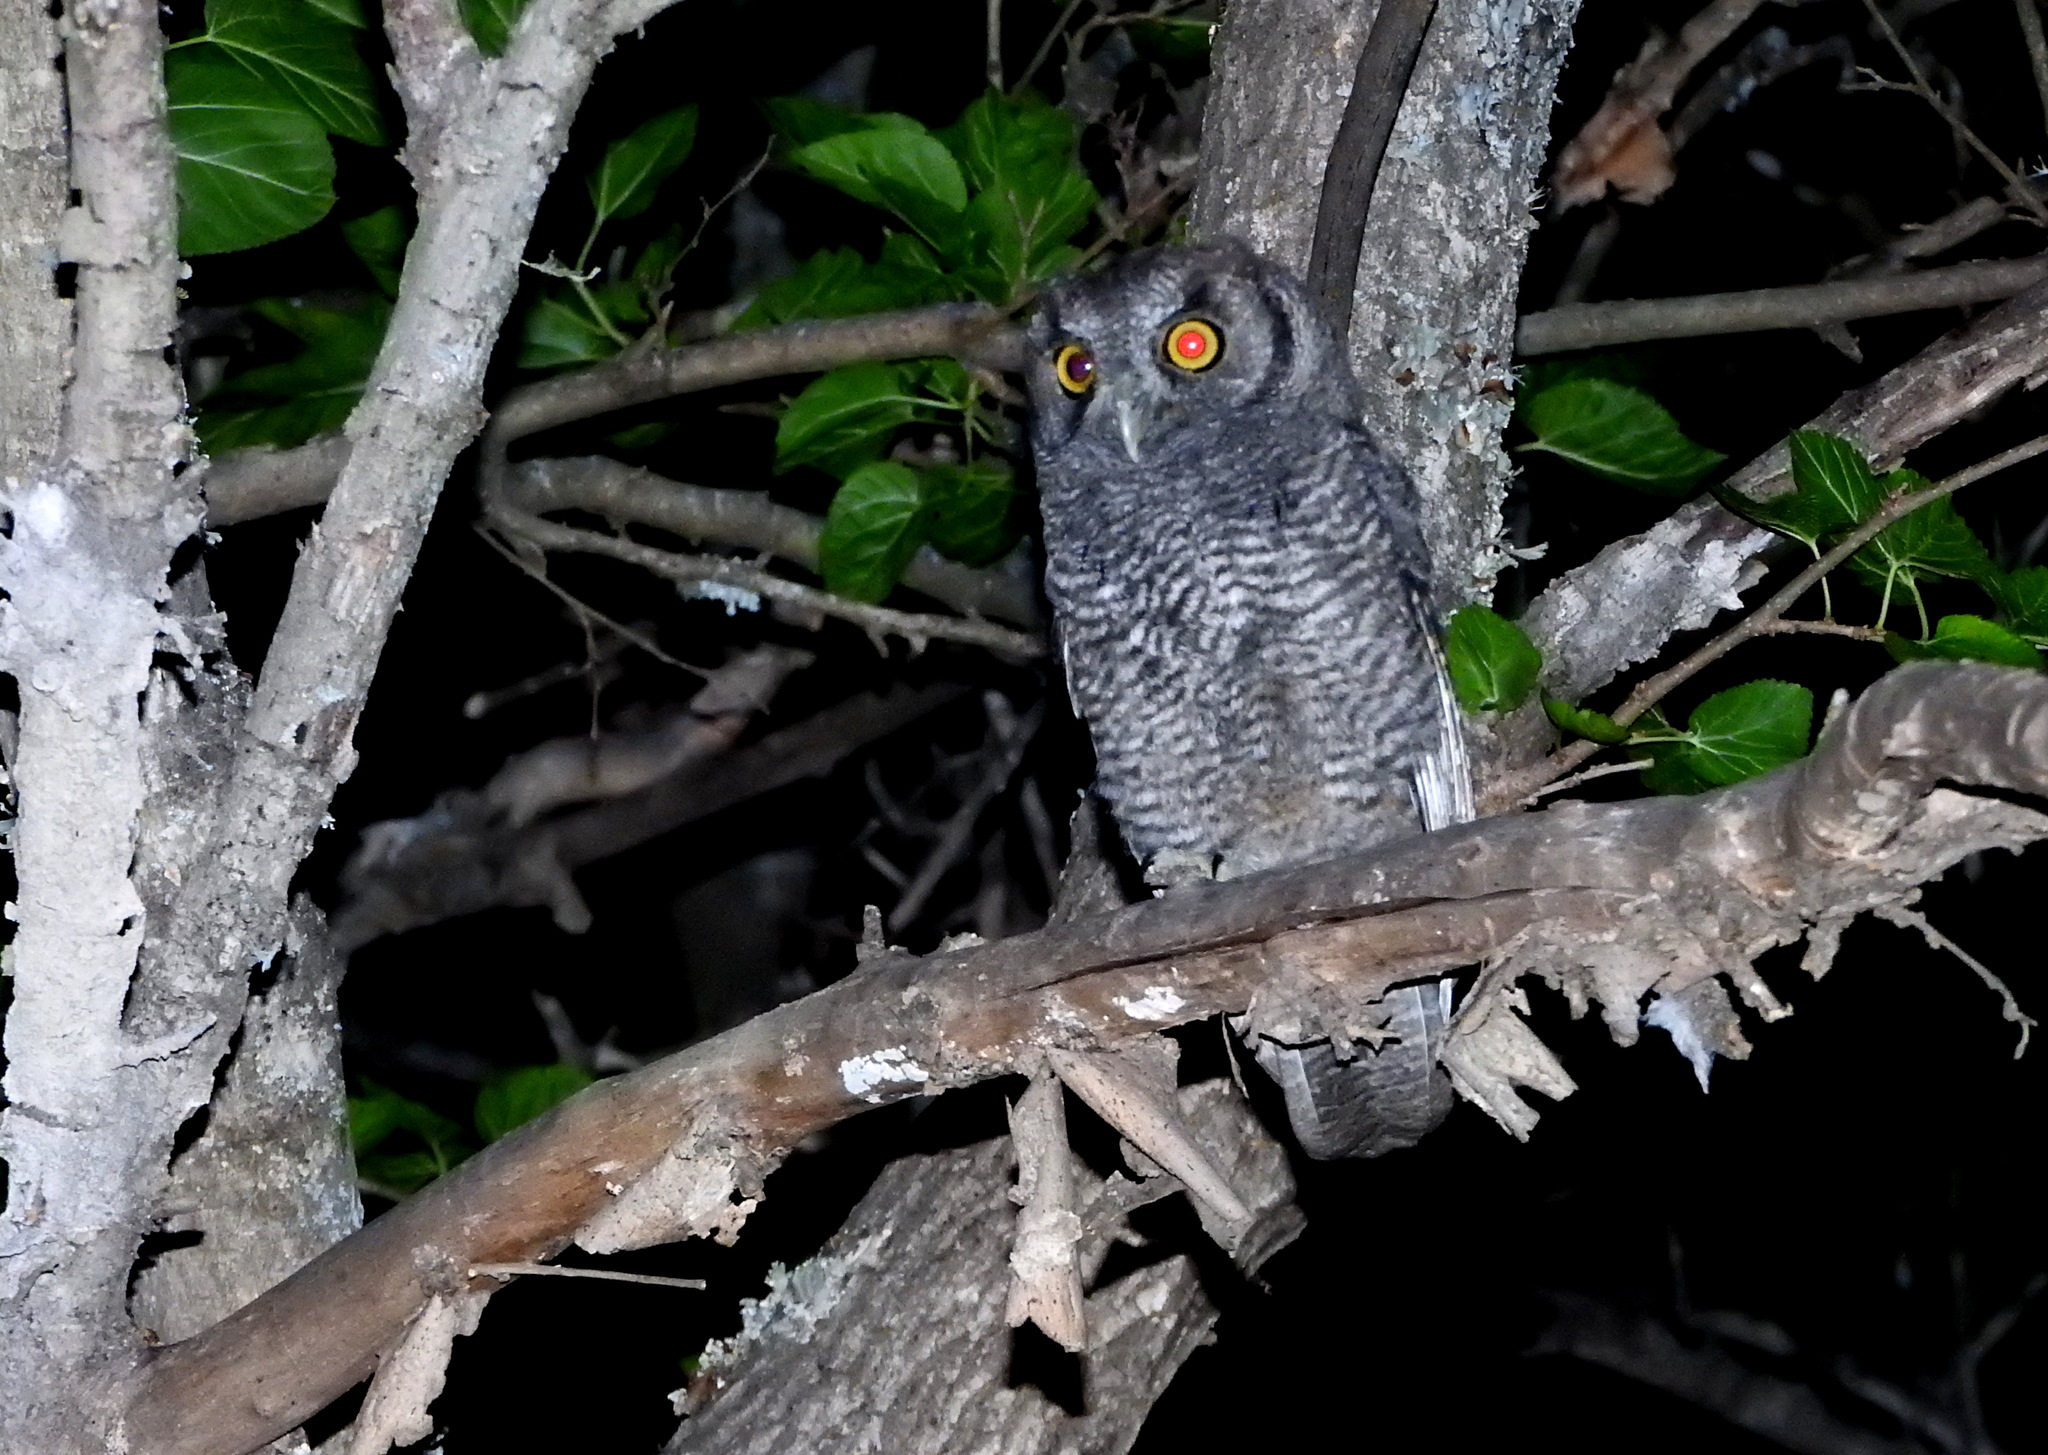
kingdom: Animalia
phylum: Chordata
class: Aves
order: Strigiformes
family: Strigidae
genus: Megascops
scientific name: Megascops choliba
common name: Tropical screech-owl
